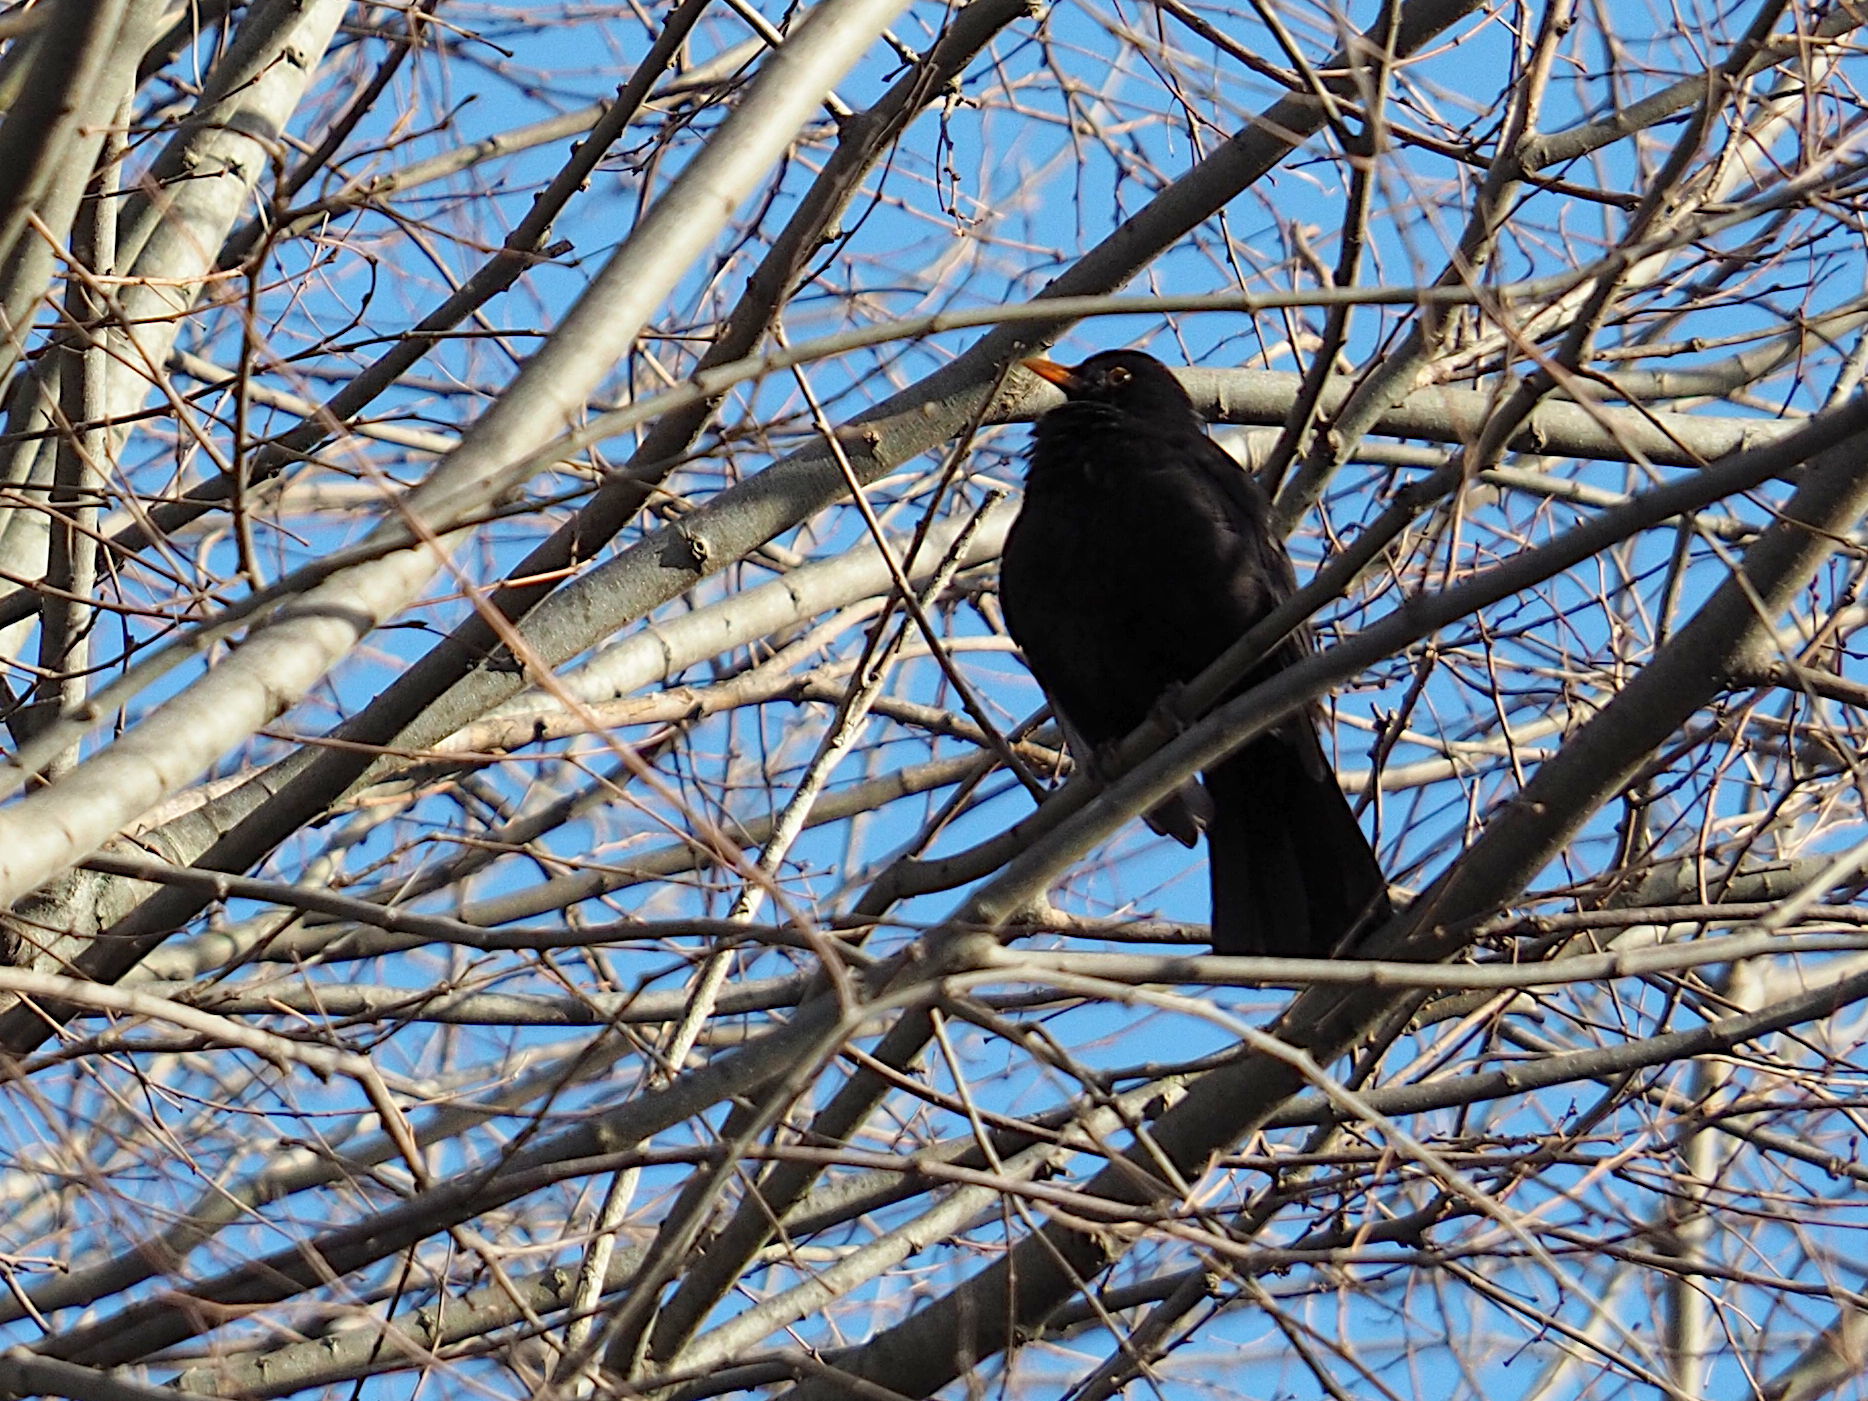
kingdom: Animalia
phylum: Chordata
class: Aves
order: Passeriformes
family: Turdidae
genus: Turdus
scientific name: Turdus merula
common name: Common blackbird
